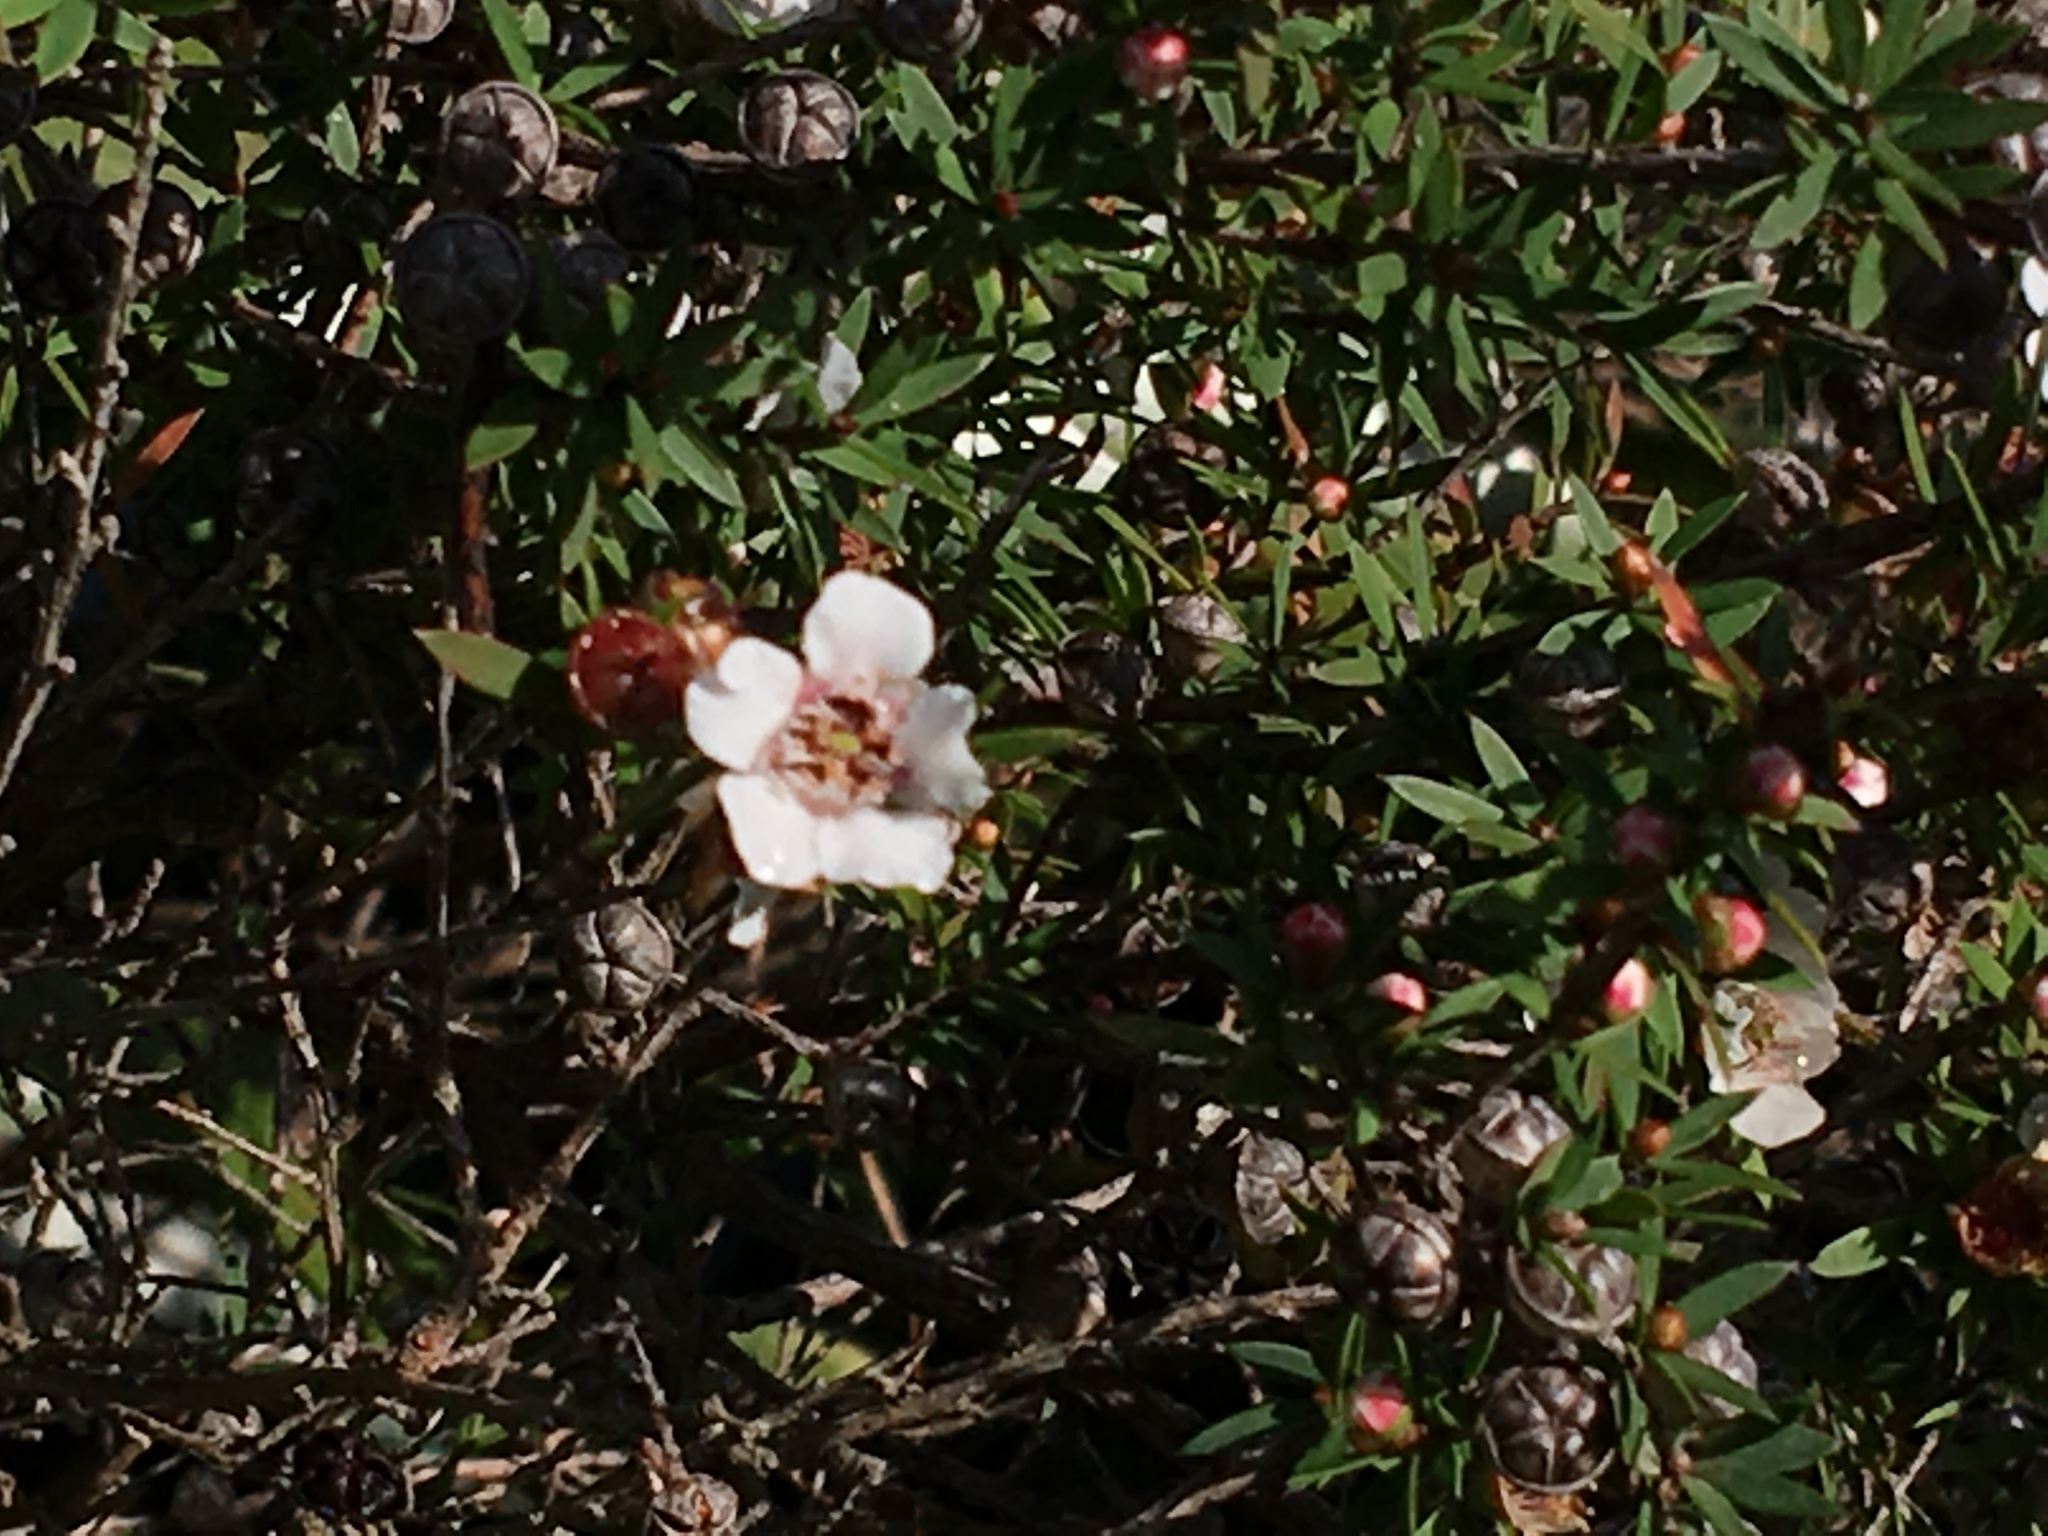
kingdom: Plantae
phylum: Tracheophyta
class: Magnoliopsida
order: Myrtales
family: Myrtaceae
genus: Leptospermum
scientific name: Leptospermum scoparium
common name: Broom tea-tree
